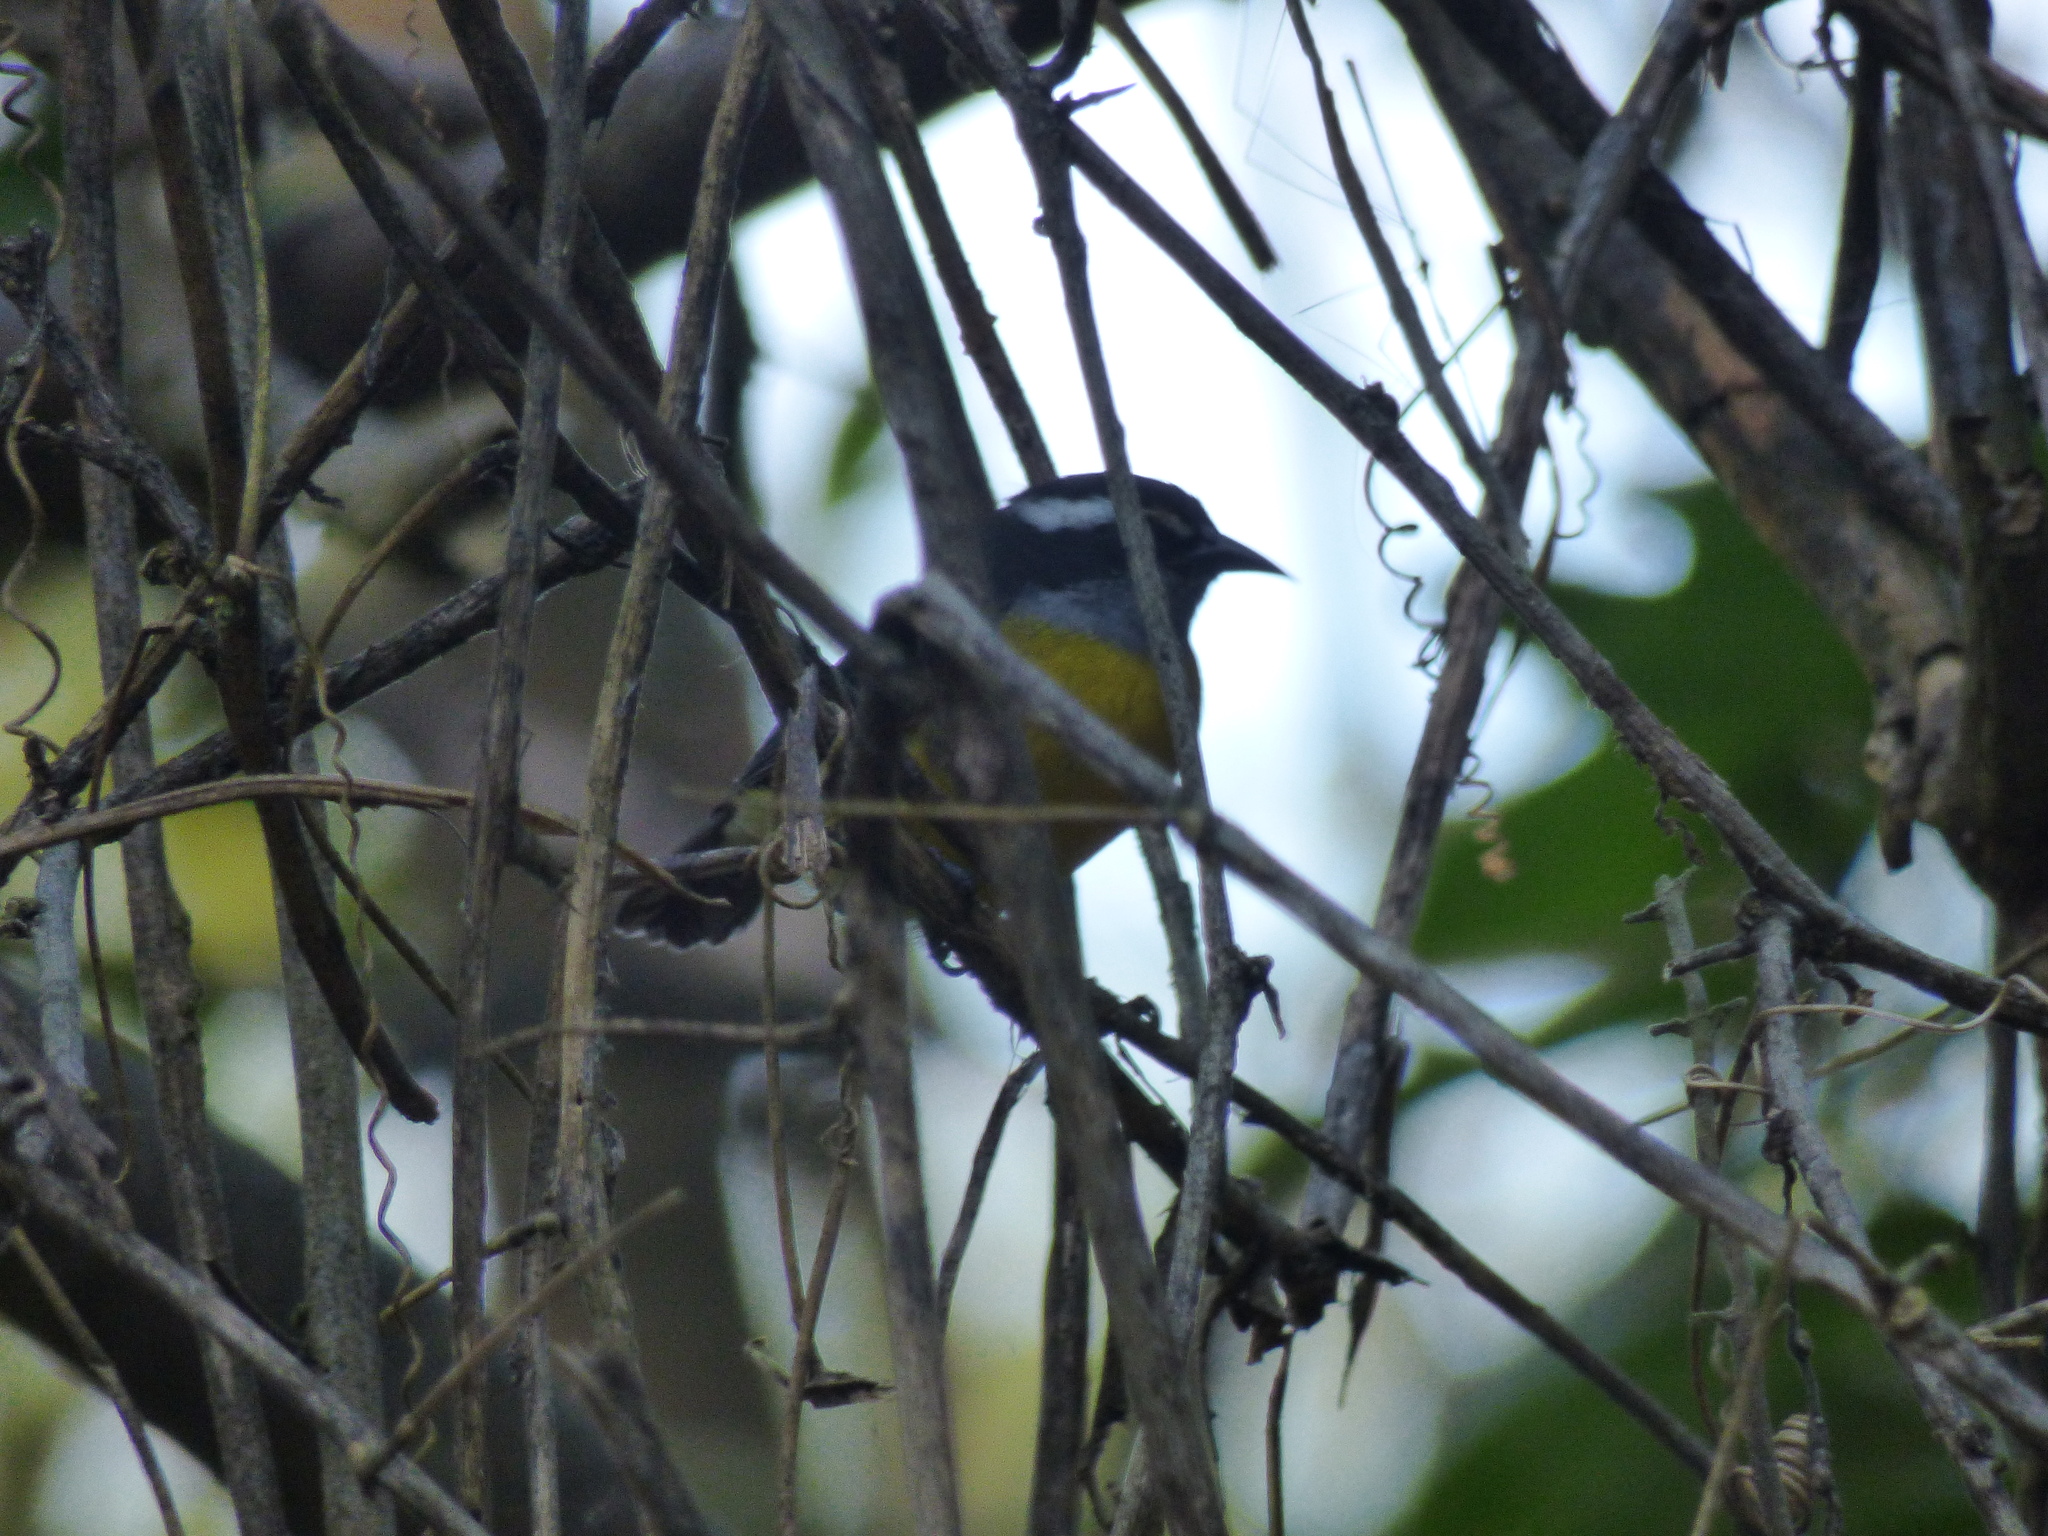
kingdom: Animalia
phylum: Chordata
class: Aves
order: Passeriformes
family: Thraupidae
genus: Coereba
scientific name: Coereba flaveola
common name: Bananaquit
